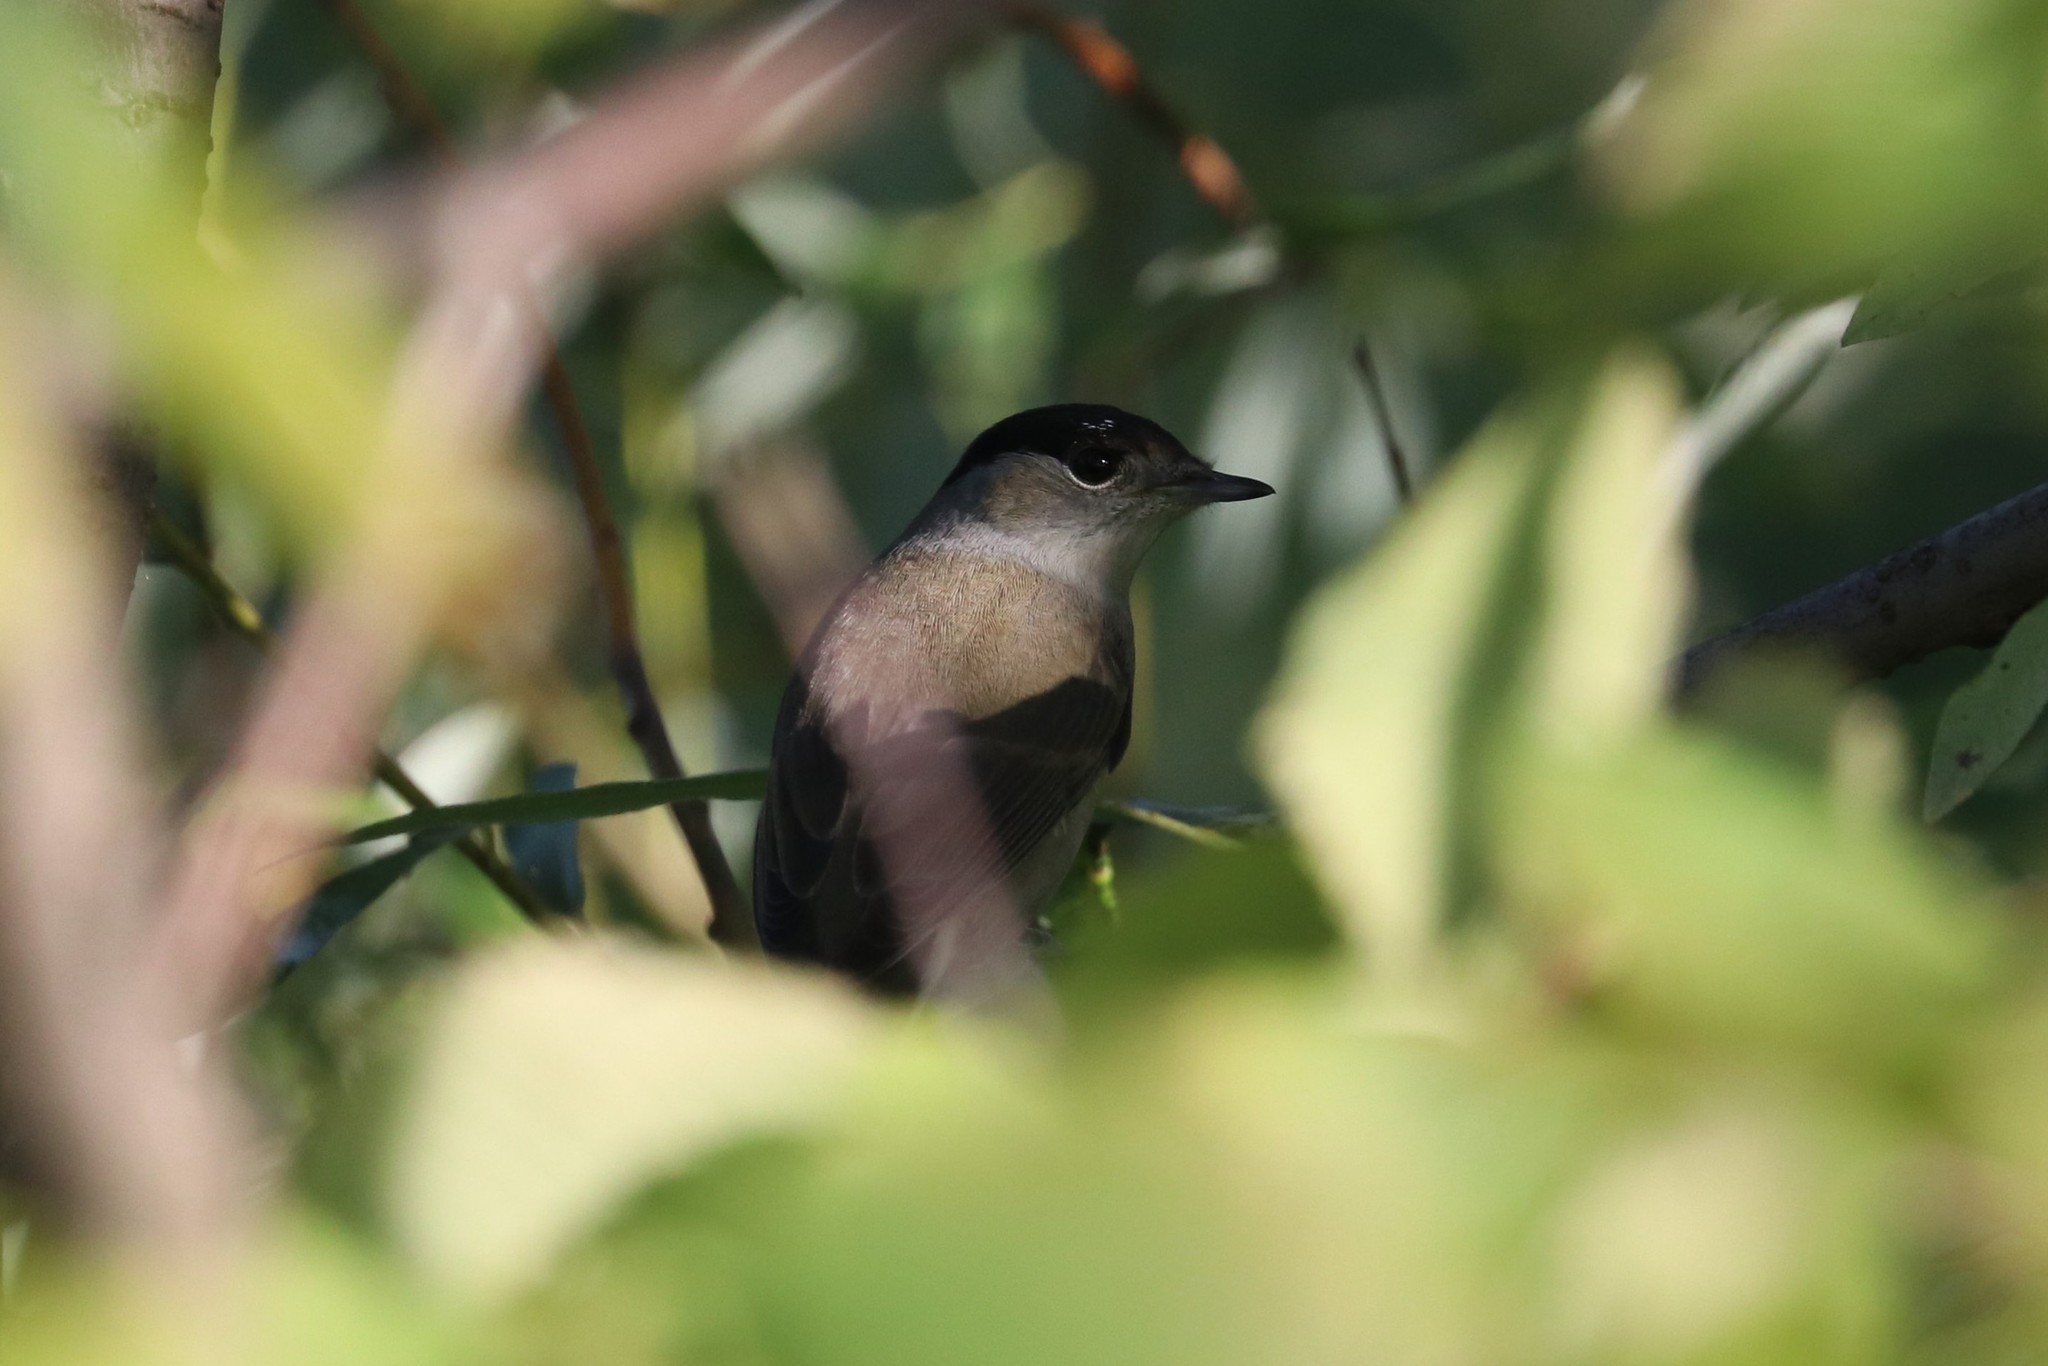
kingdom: Animalia
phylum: Chordata
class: Aves
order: Passeriformes
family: Sylviidae
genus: Sylvia
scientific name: Sylvia atricapilla
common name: Eurasian blackcap
